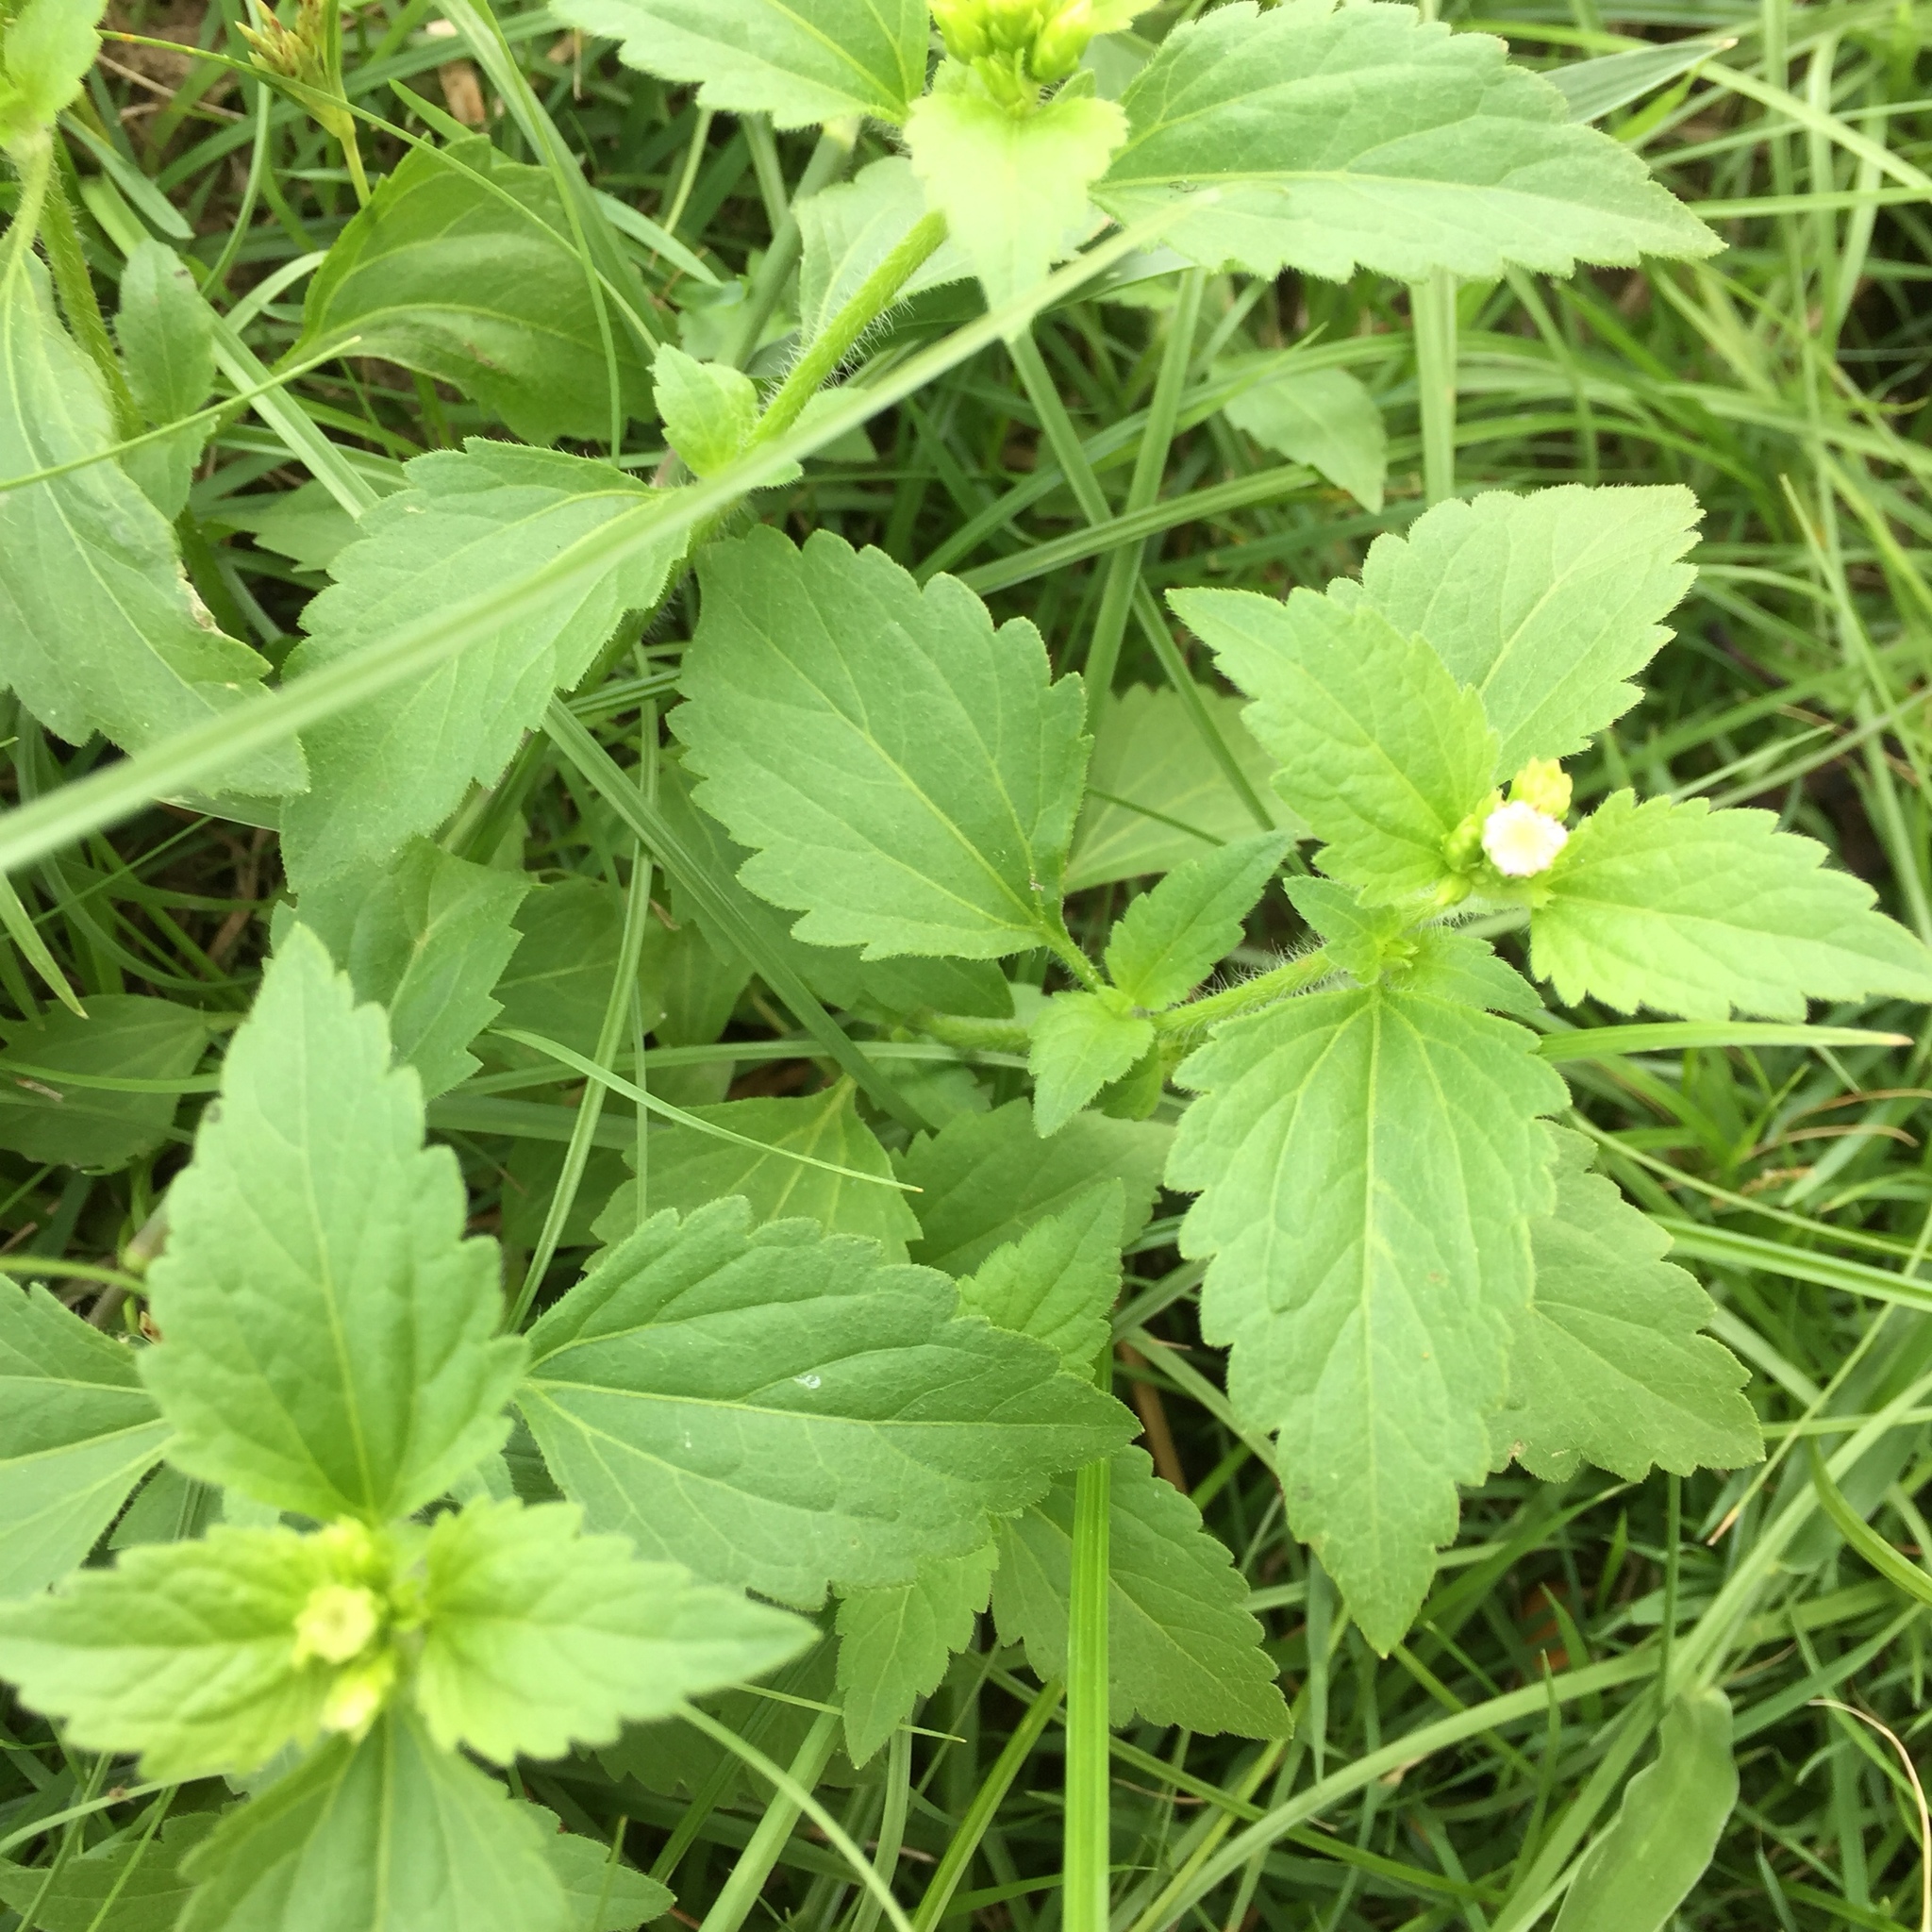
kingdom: Plantae
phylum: Tracheophyta
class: Magnoliopsida
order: Asterales
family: Asteraceae
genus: Chromolaena
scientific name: Chromolaena odorata
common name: Siamweed
